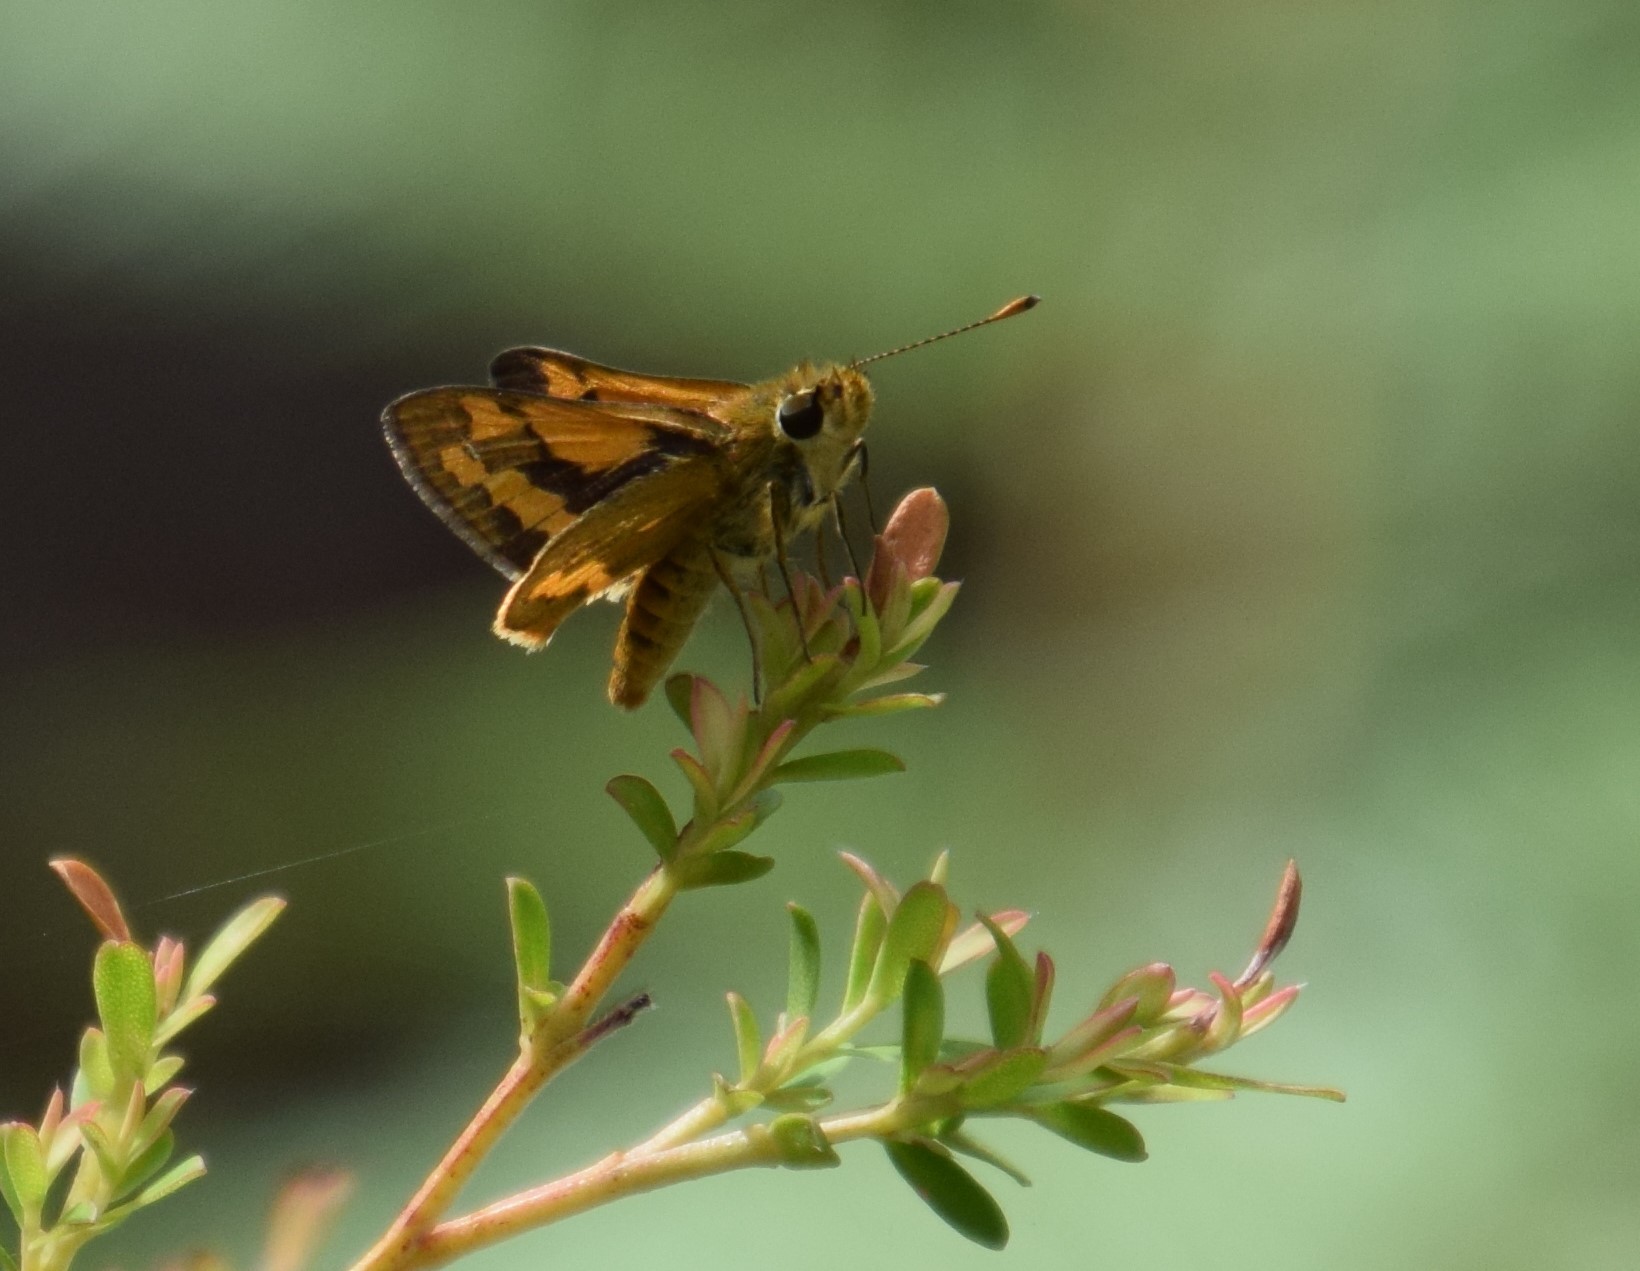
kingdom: Animalia
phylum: Arthropoda
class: Insecta
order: Lepidoptera
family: Hesperiidae
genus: Ocybadistes
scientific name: Ocybadistes walkeri
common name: Yellow-banded dart
